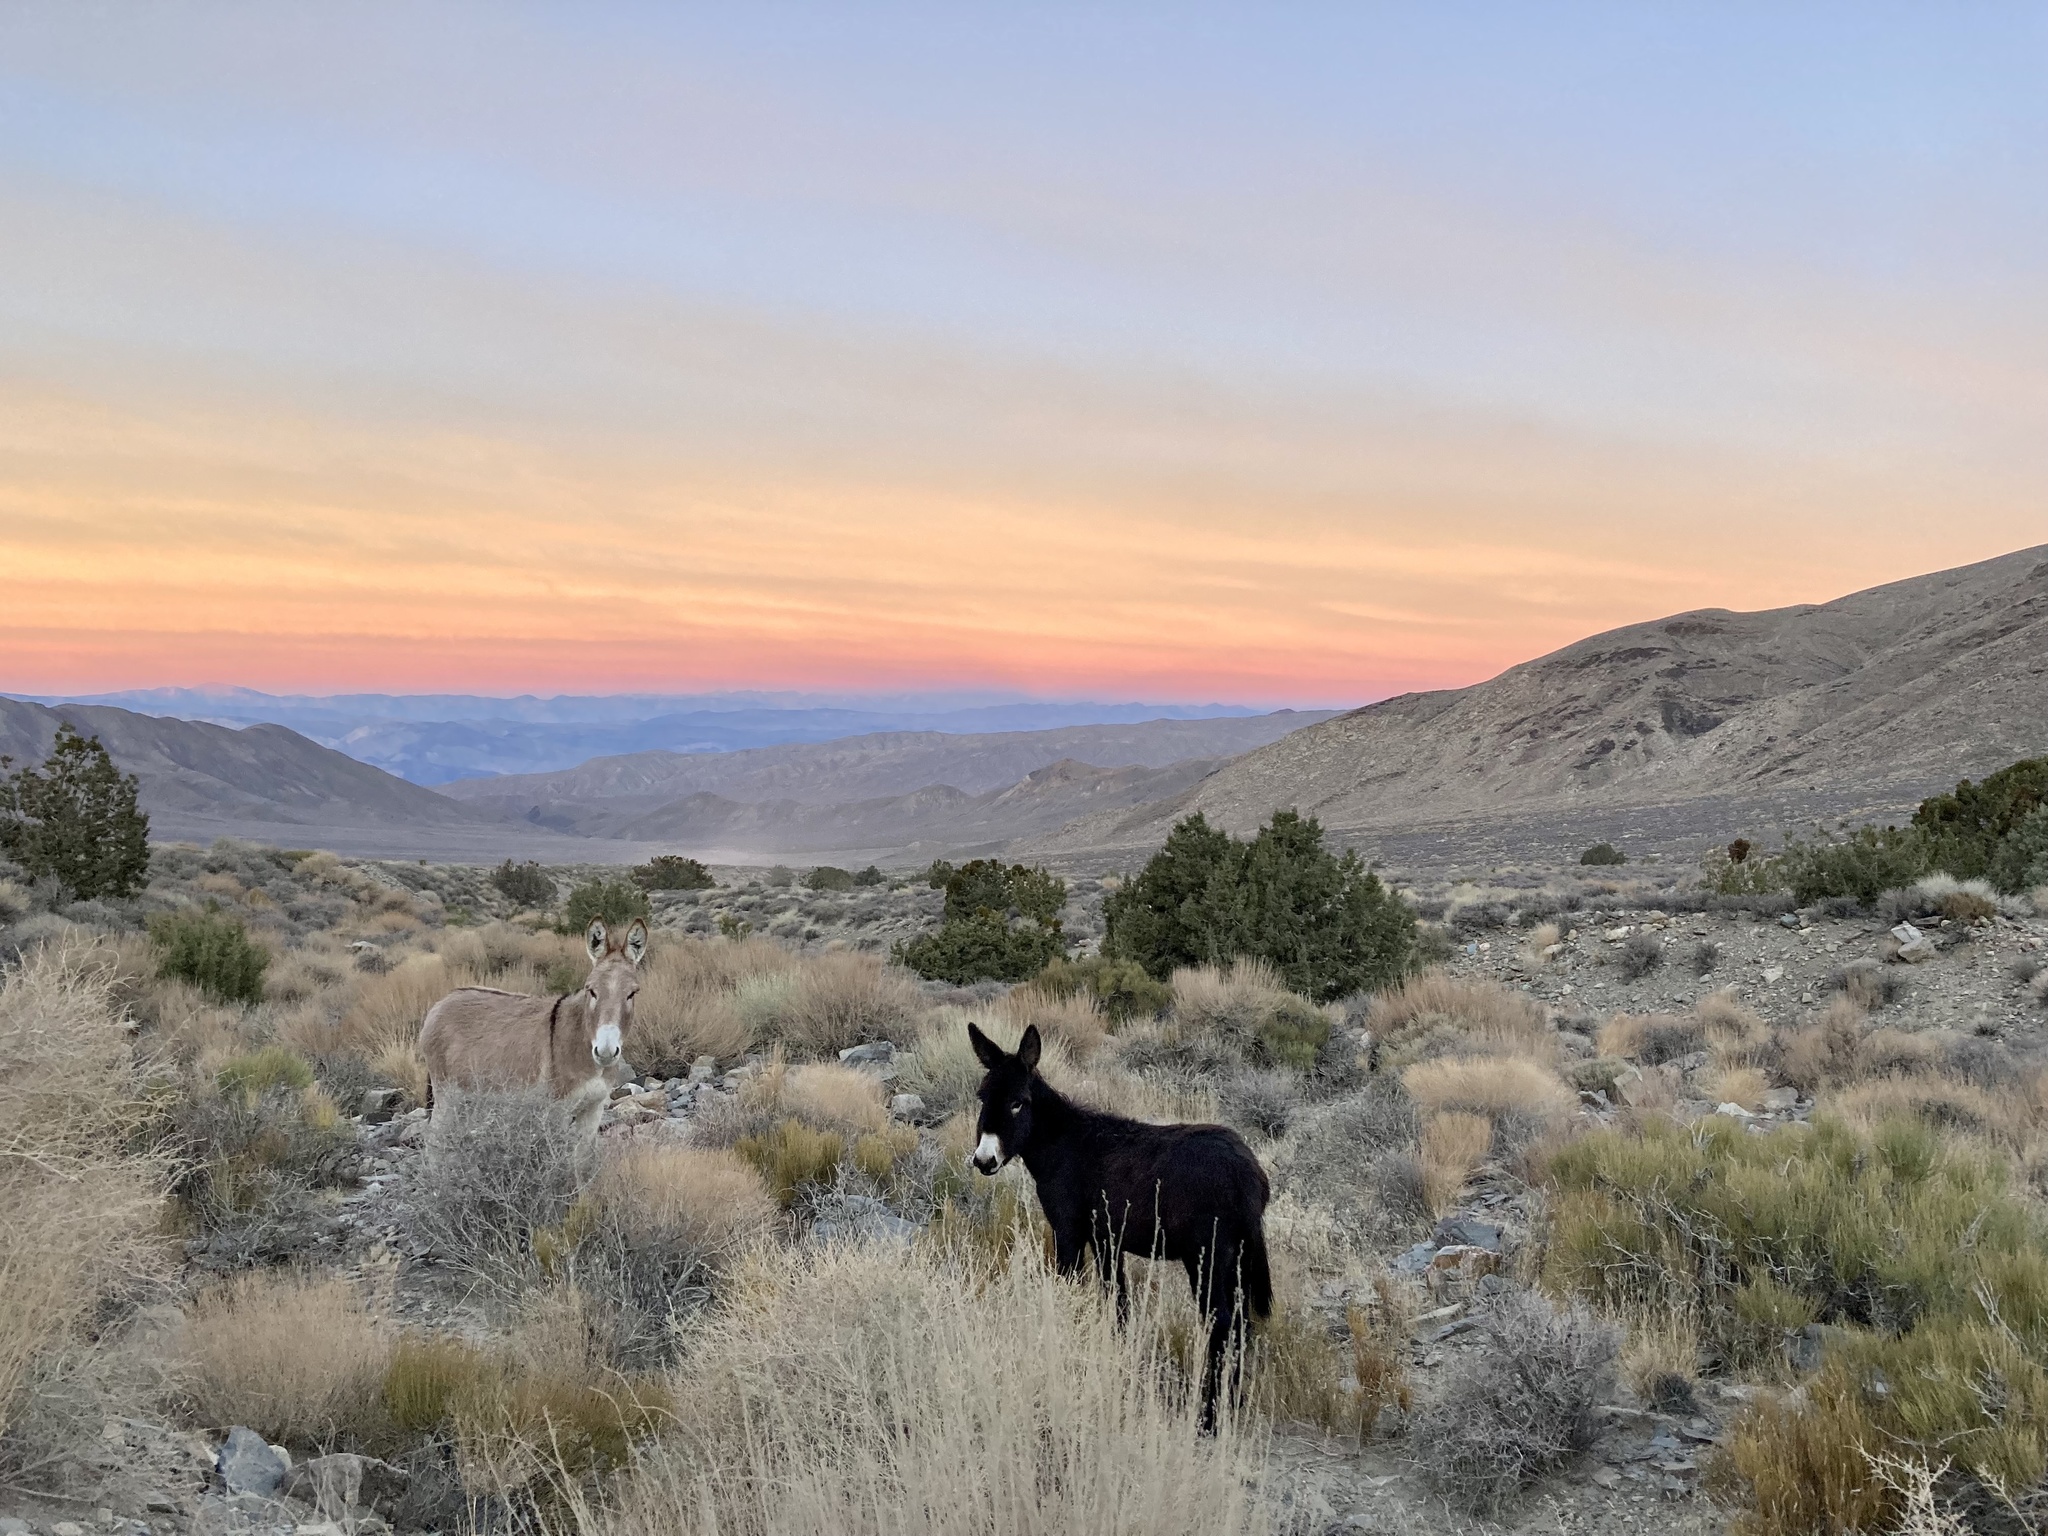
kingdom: Animalia
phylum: Chordata
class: Mammalia
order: Perissodactyla
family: Equidae
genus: Equus
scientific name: Equus asinus
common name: Ass
